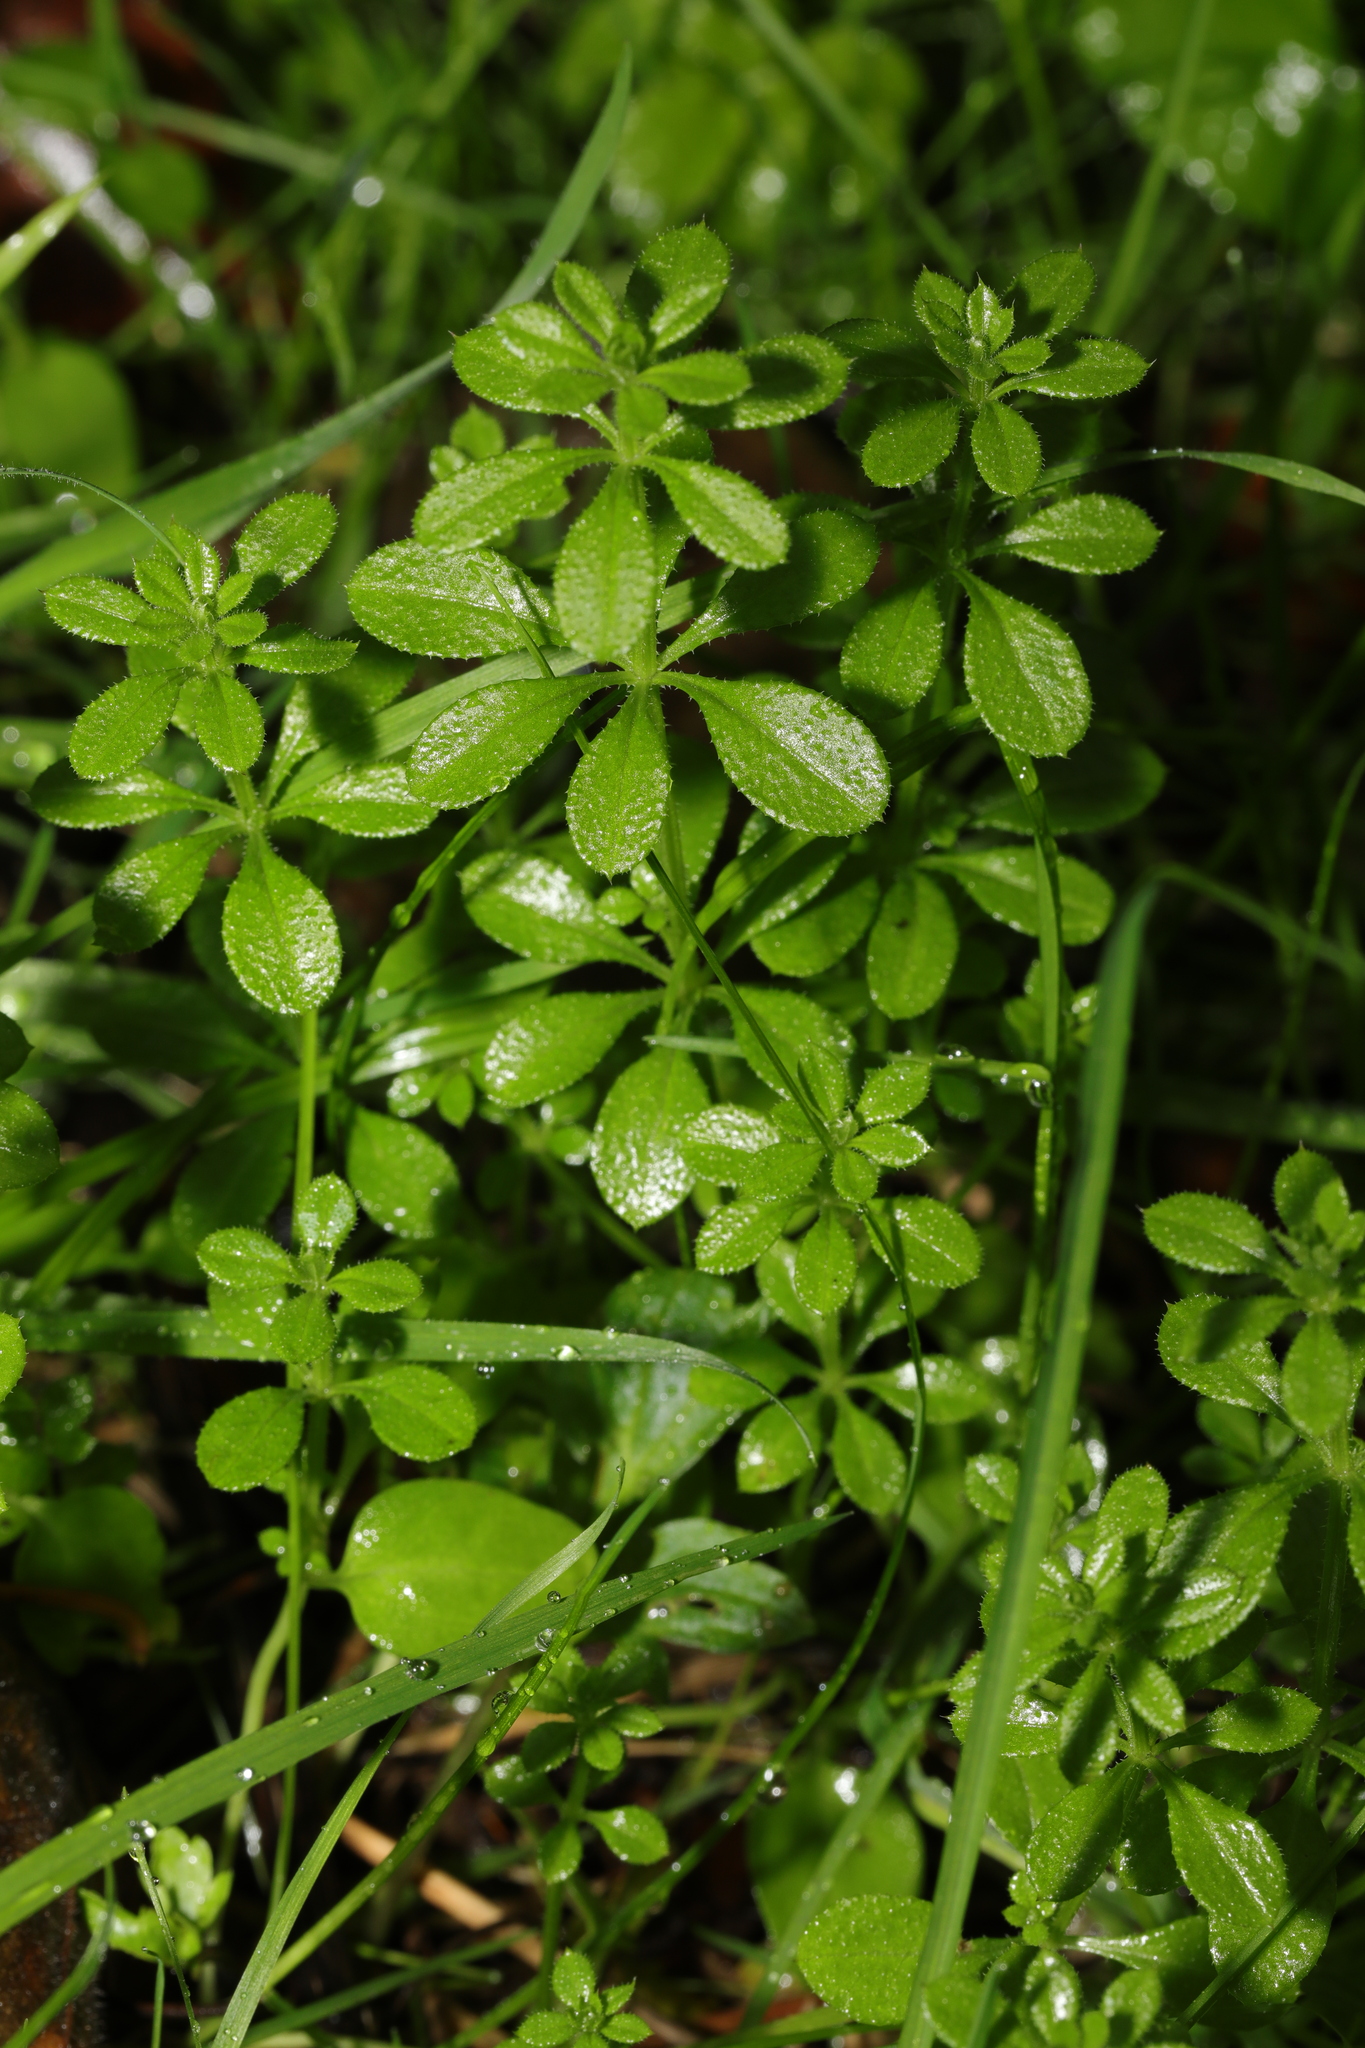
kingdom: Plantae
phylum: Tracheophyta
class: Magnoliopsida
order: Gentianales
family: Rubiaceae
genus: Galium
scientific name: Galium aparine
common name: Cleavers
